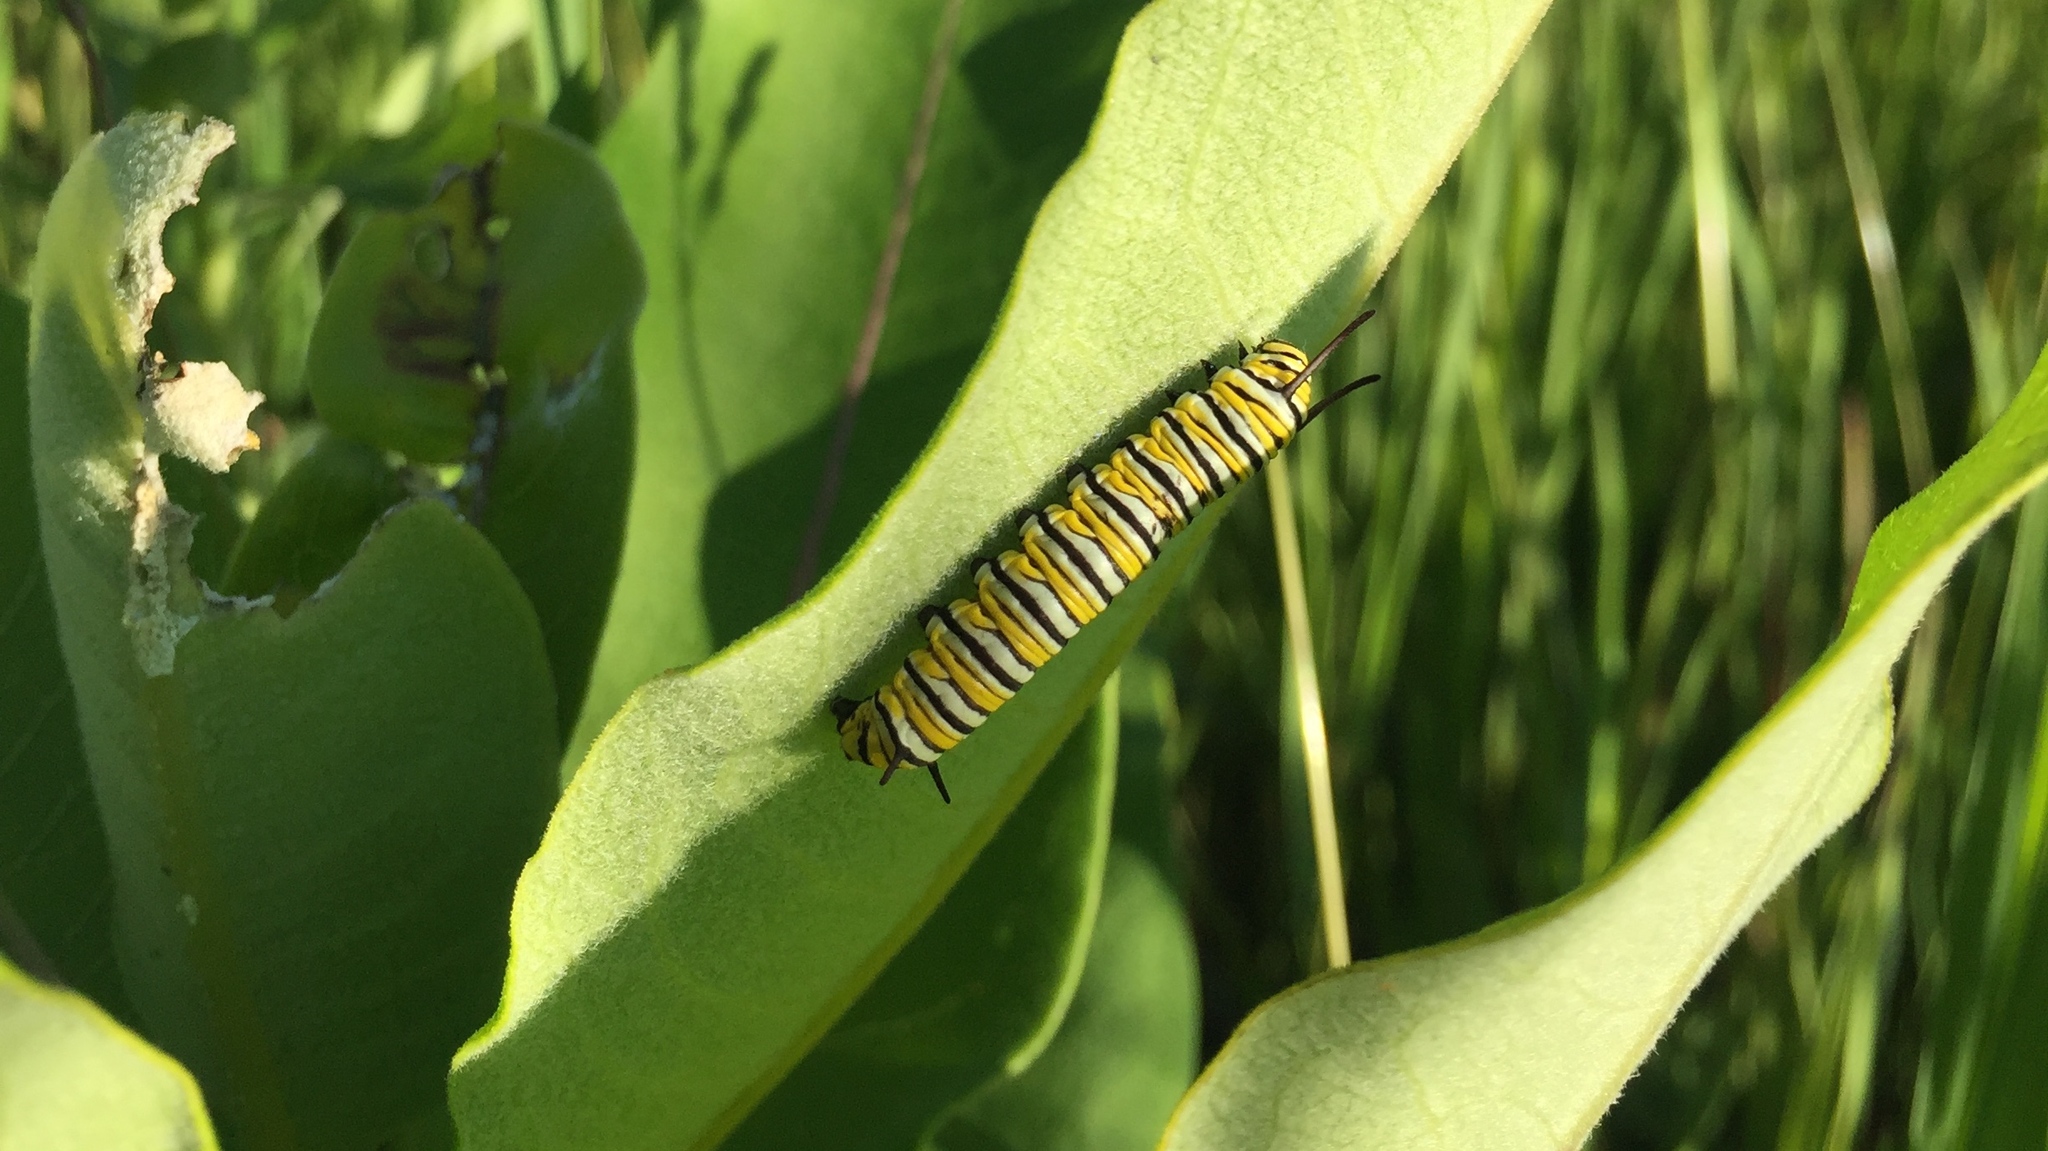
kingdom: Animalia
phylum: Arthropoda
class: Insecta
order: Lepidoptera
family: Nymphalidae
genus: Danaus
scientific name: Danaus plexippus
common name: Monarch
